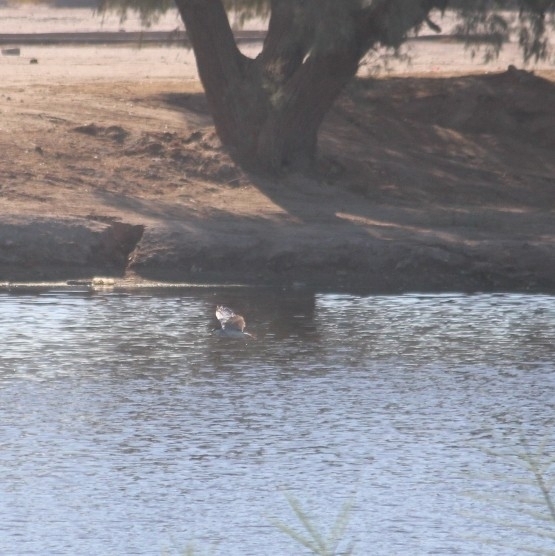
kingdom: Animalia
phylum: Chordata
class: Aves
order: Pelecaniformes
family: Ardeidae
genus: Nycticorax
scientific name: Nycticorax nycticorax
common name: Black-crowned night heron
